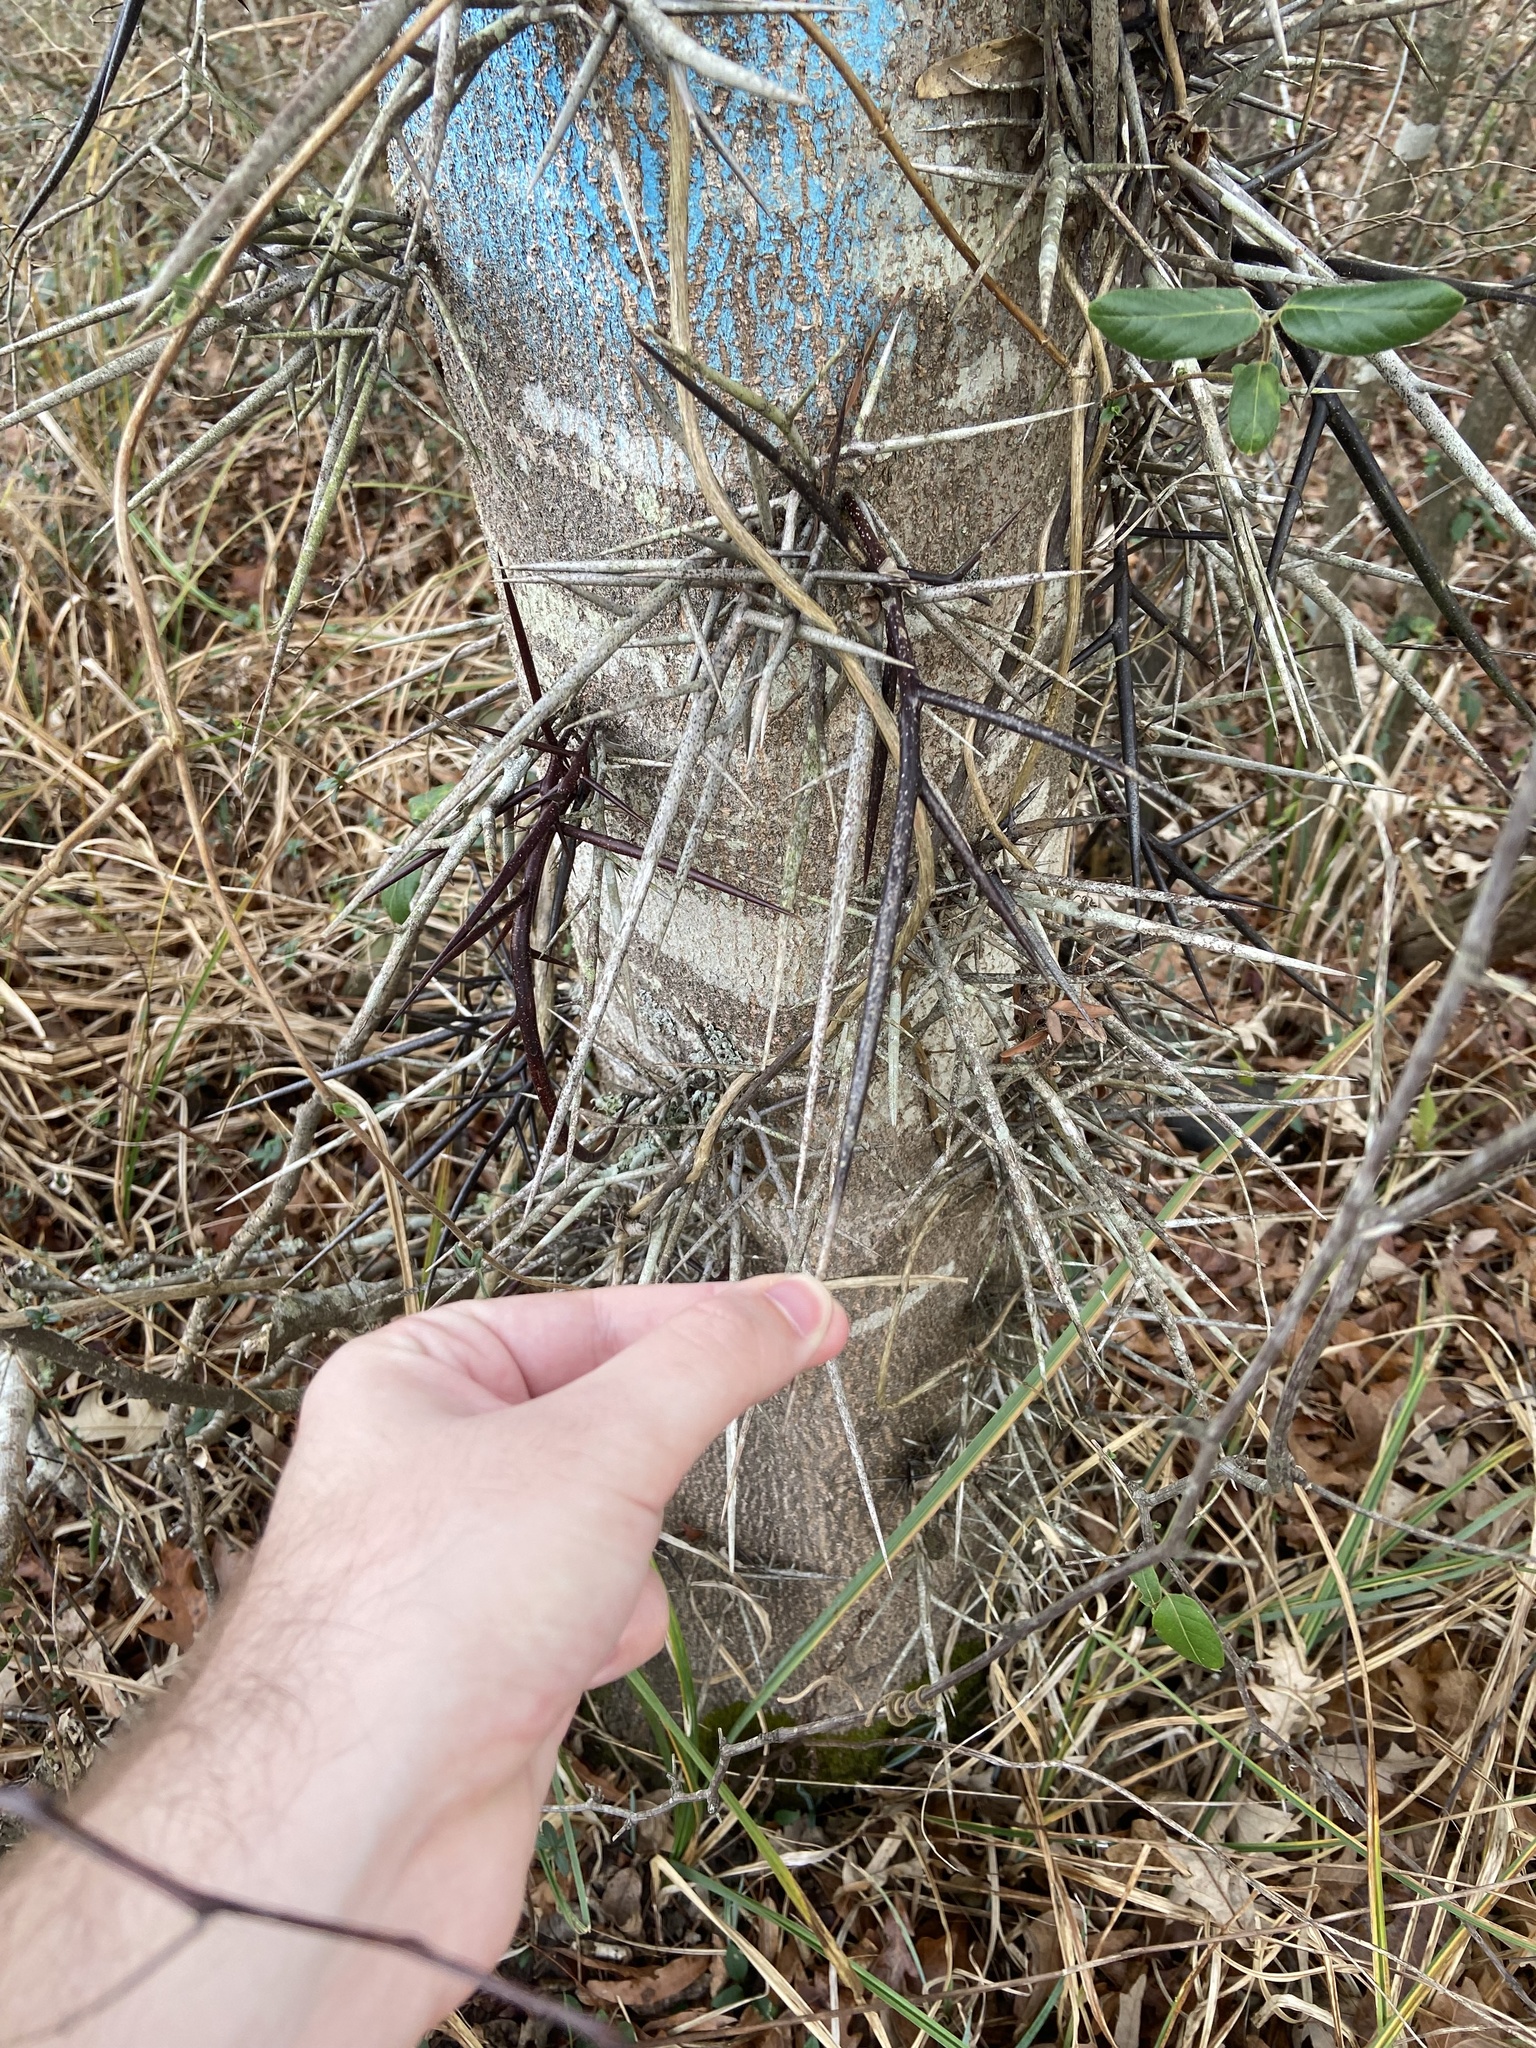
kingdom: Plantae
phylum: Tracheophyta
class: Magnoliopsida
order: Fabales
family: Fabaceae
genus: Gleditsia
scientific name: Gleditsia triacanthos
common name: Common honeylocust
